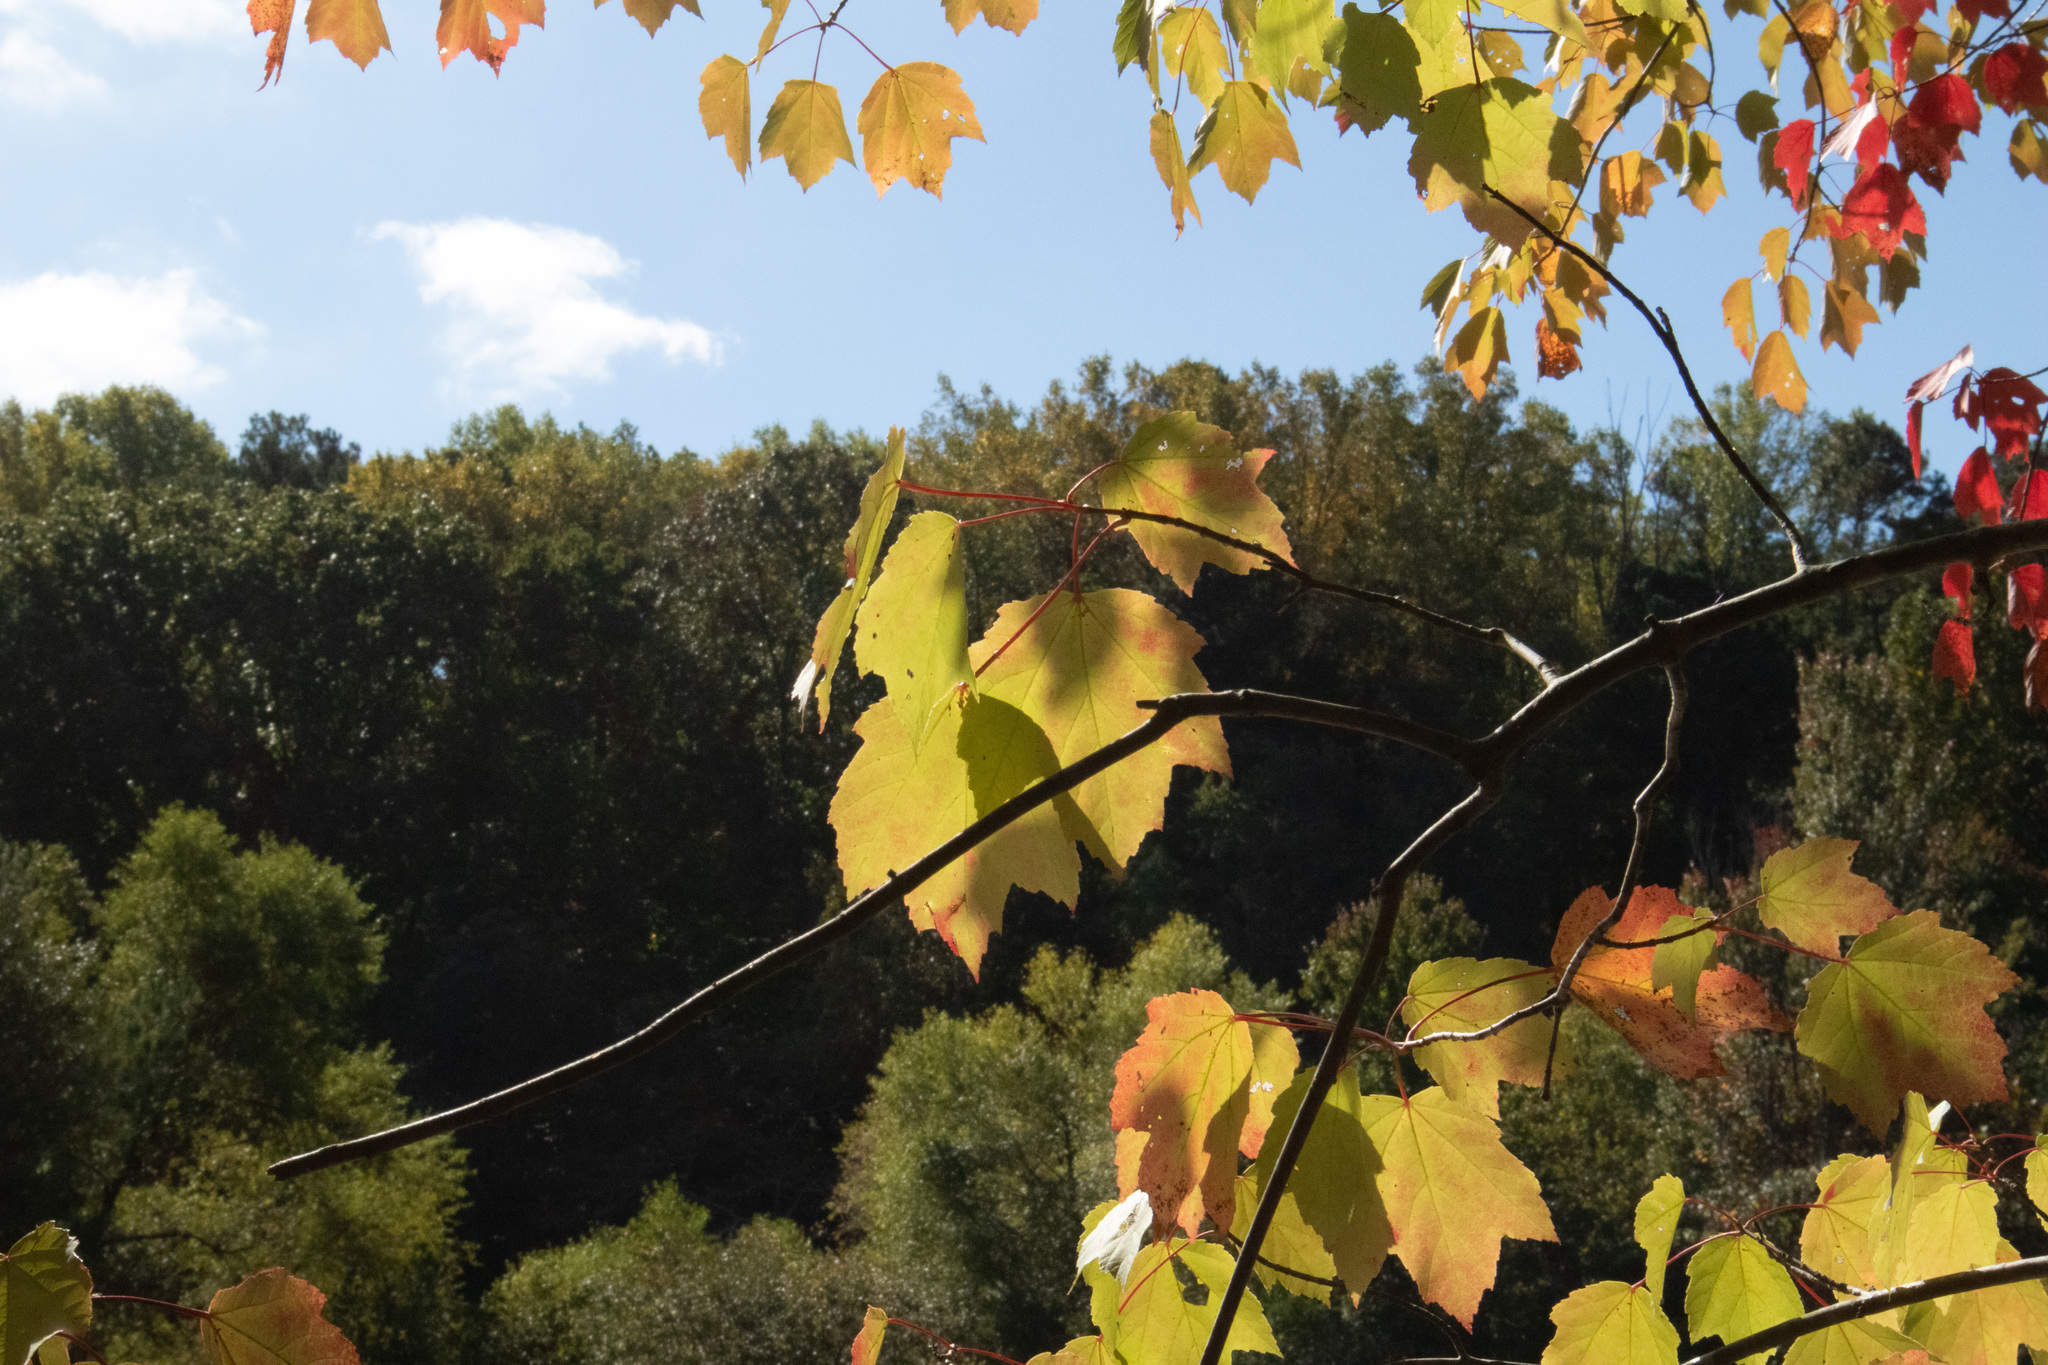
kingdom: Plantae
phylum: Tracheophyta
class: Magnoliopsida
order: Sapindales
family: Sapindaceae
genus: Acer
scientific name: Acer rubrum
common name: Red maple
